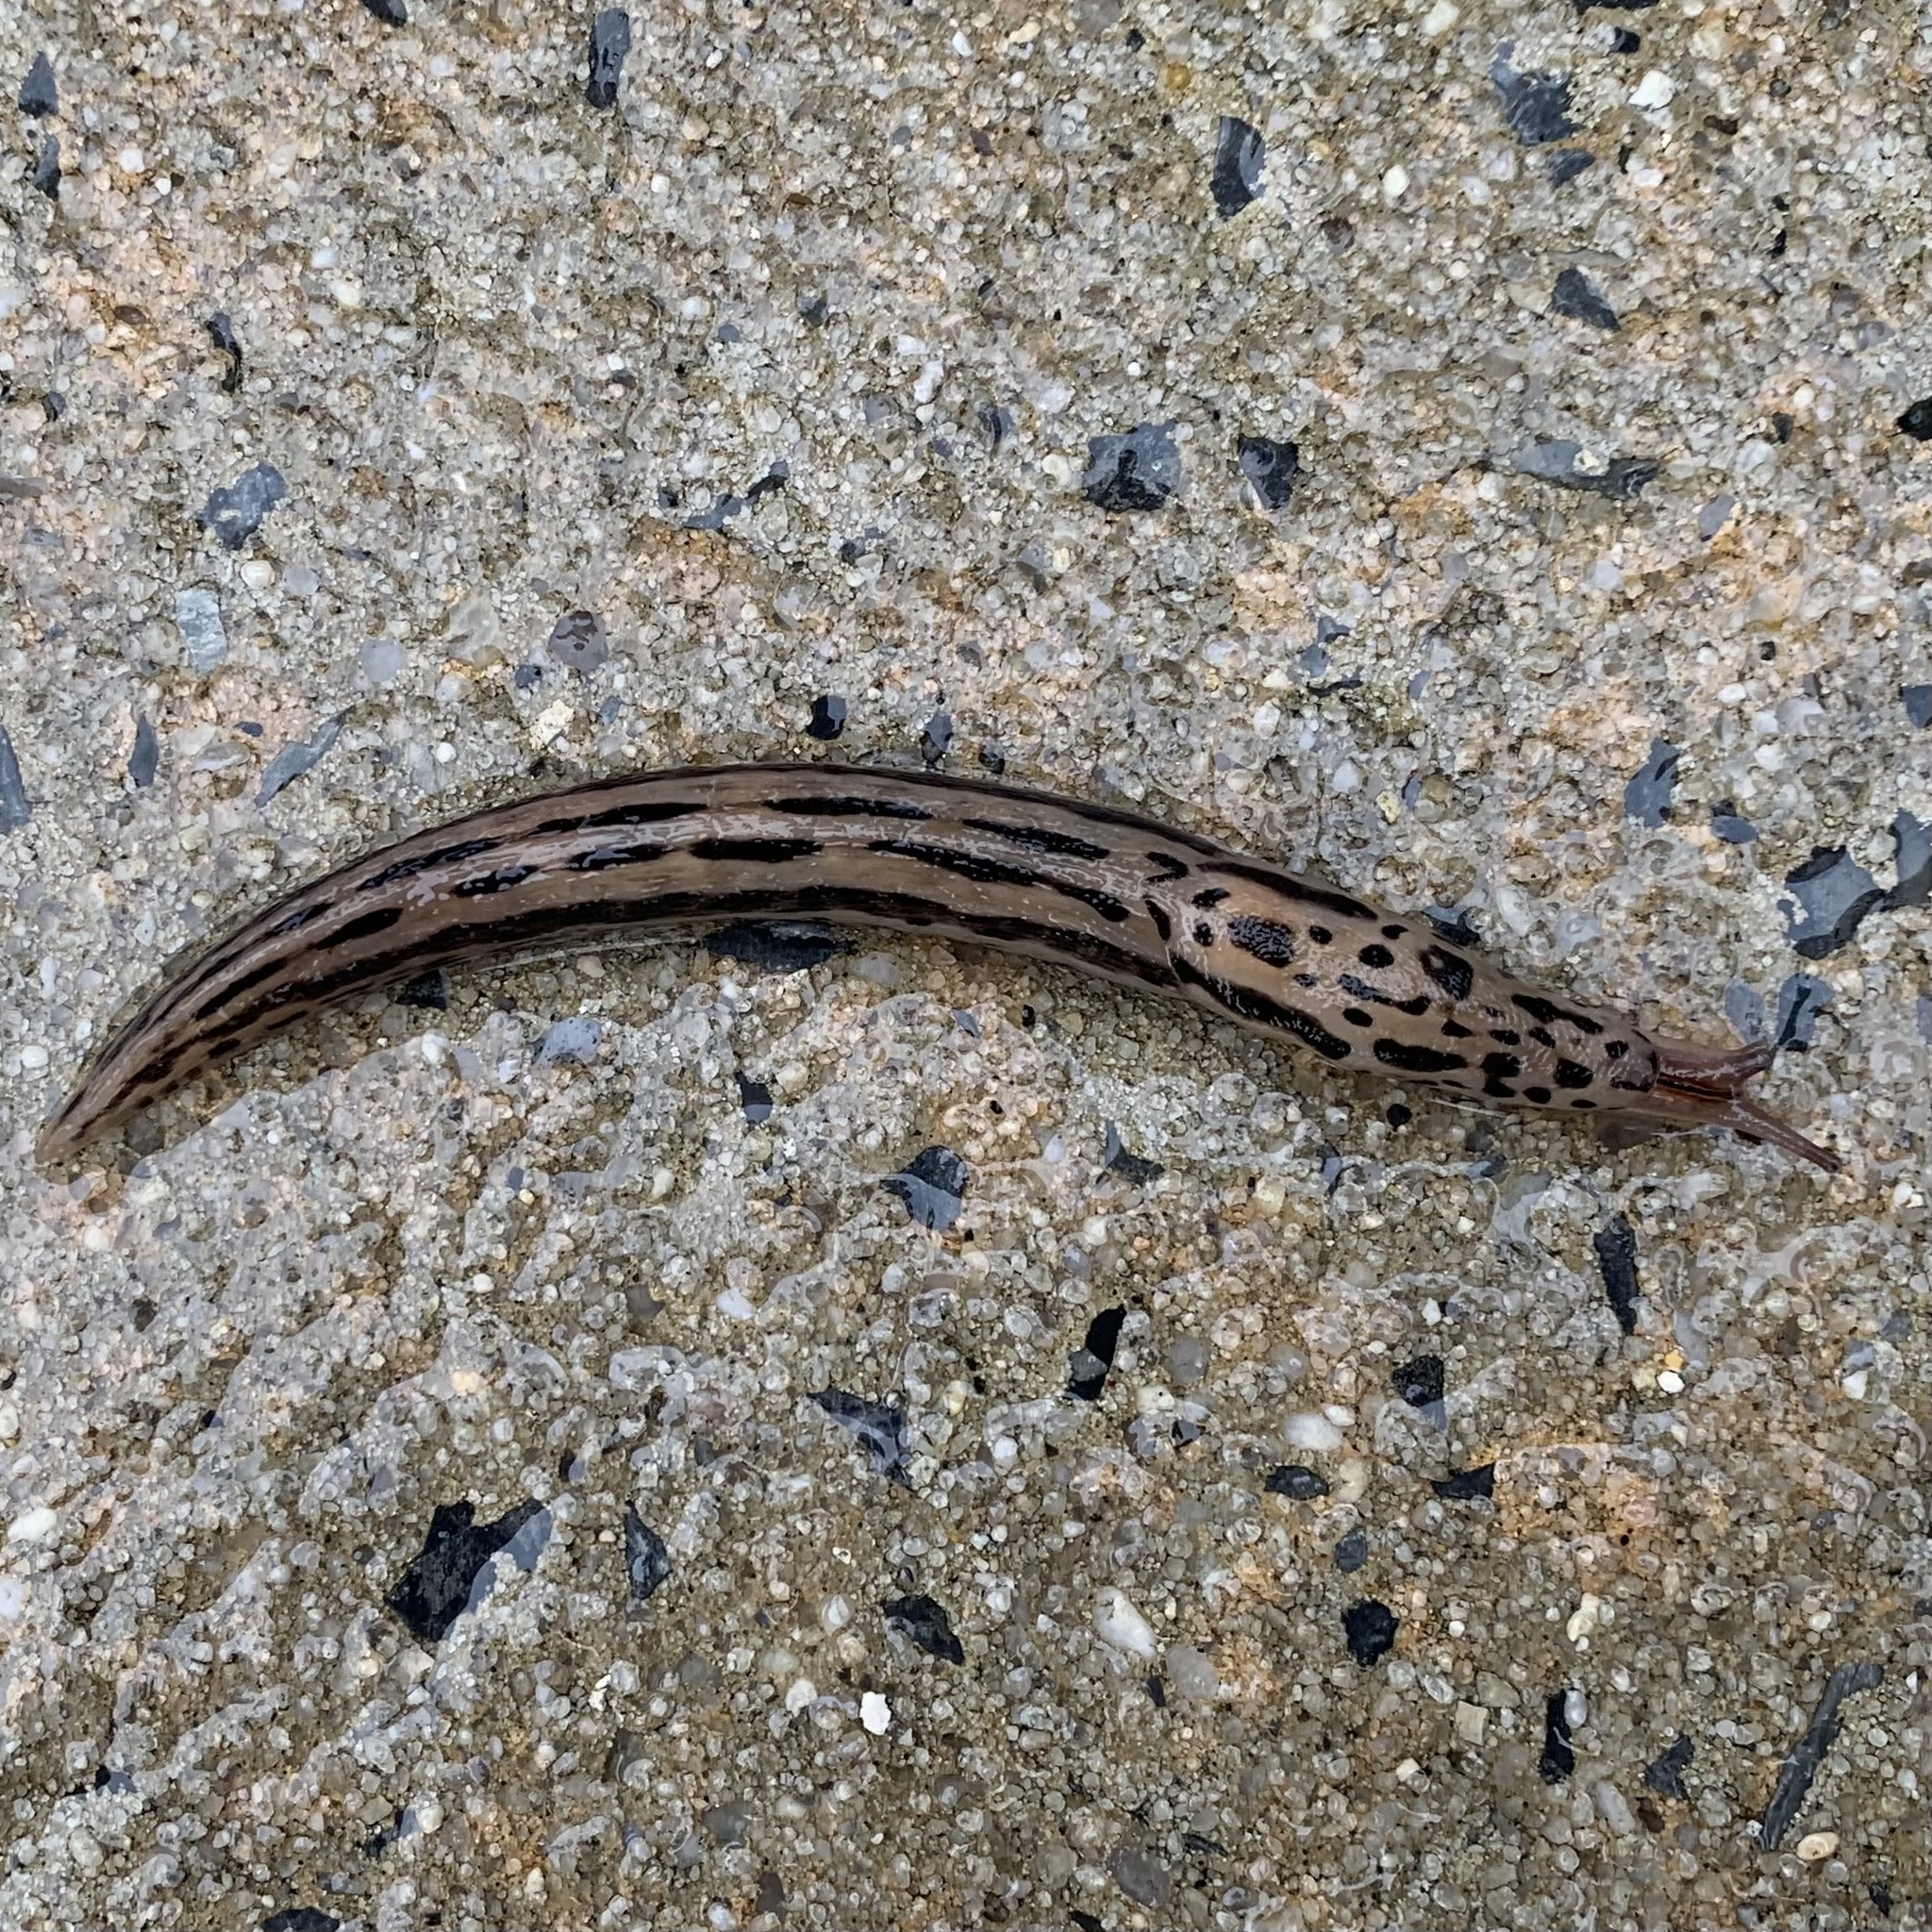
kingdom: Animalia
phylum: Mollusca
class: Gastropoda
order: Stylommatophora
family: Limacidae
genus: Limax
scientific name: Limax maximus
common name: Great grey slug
